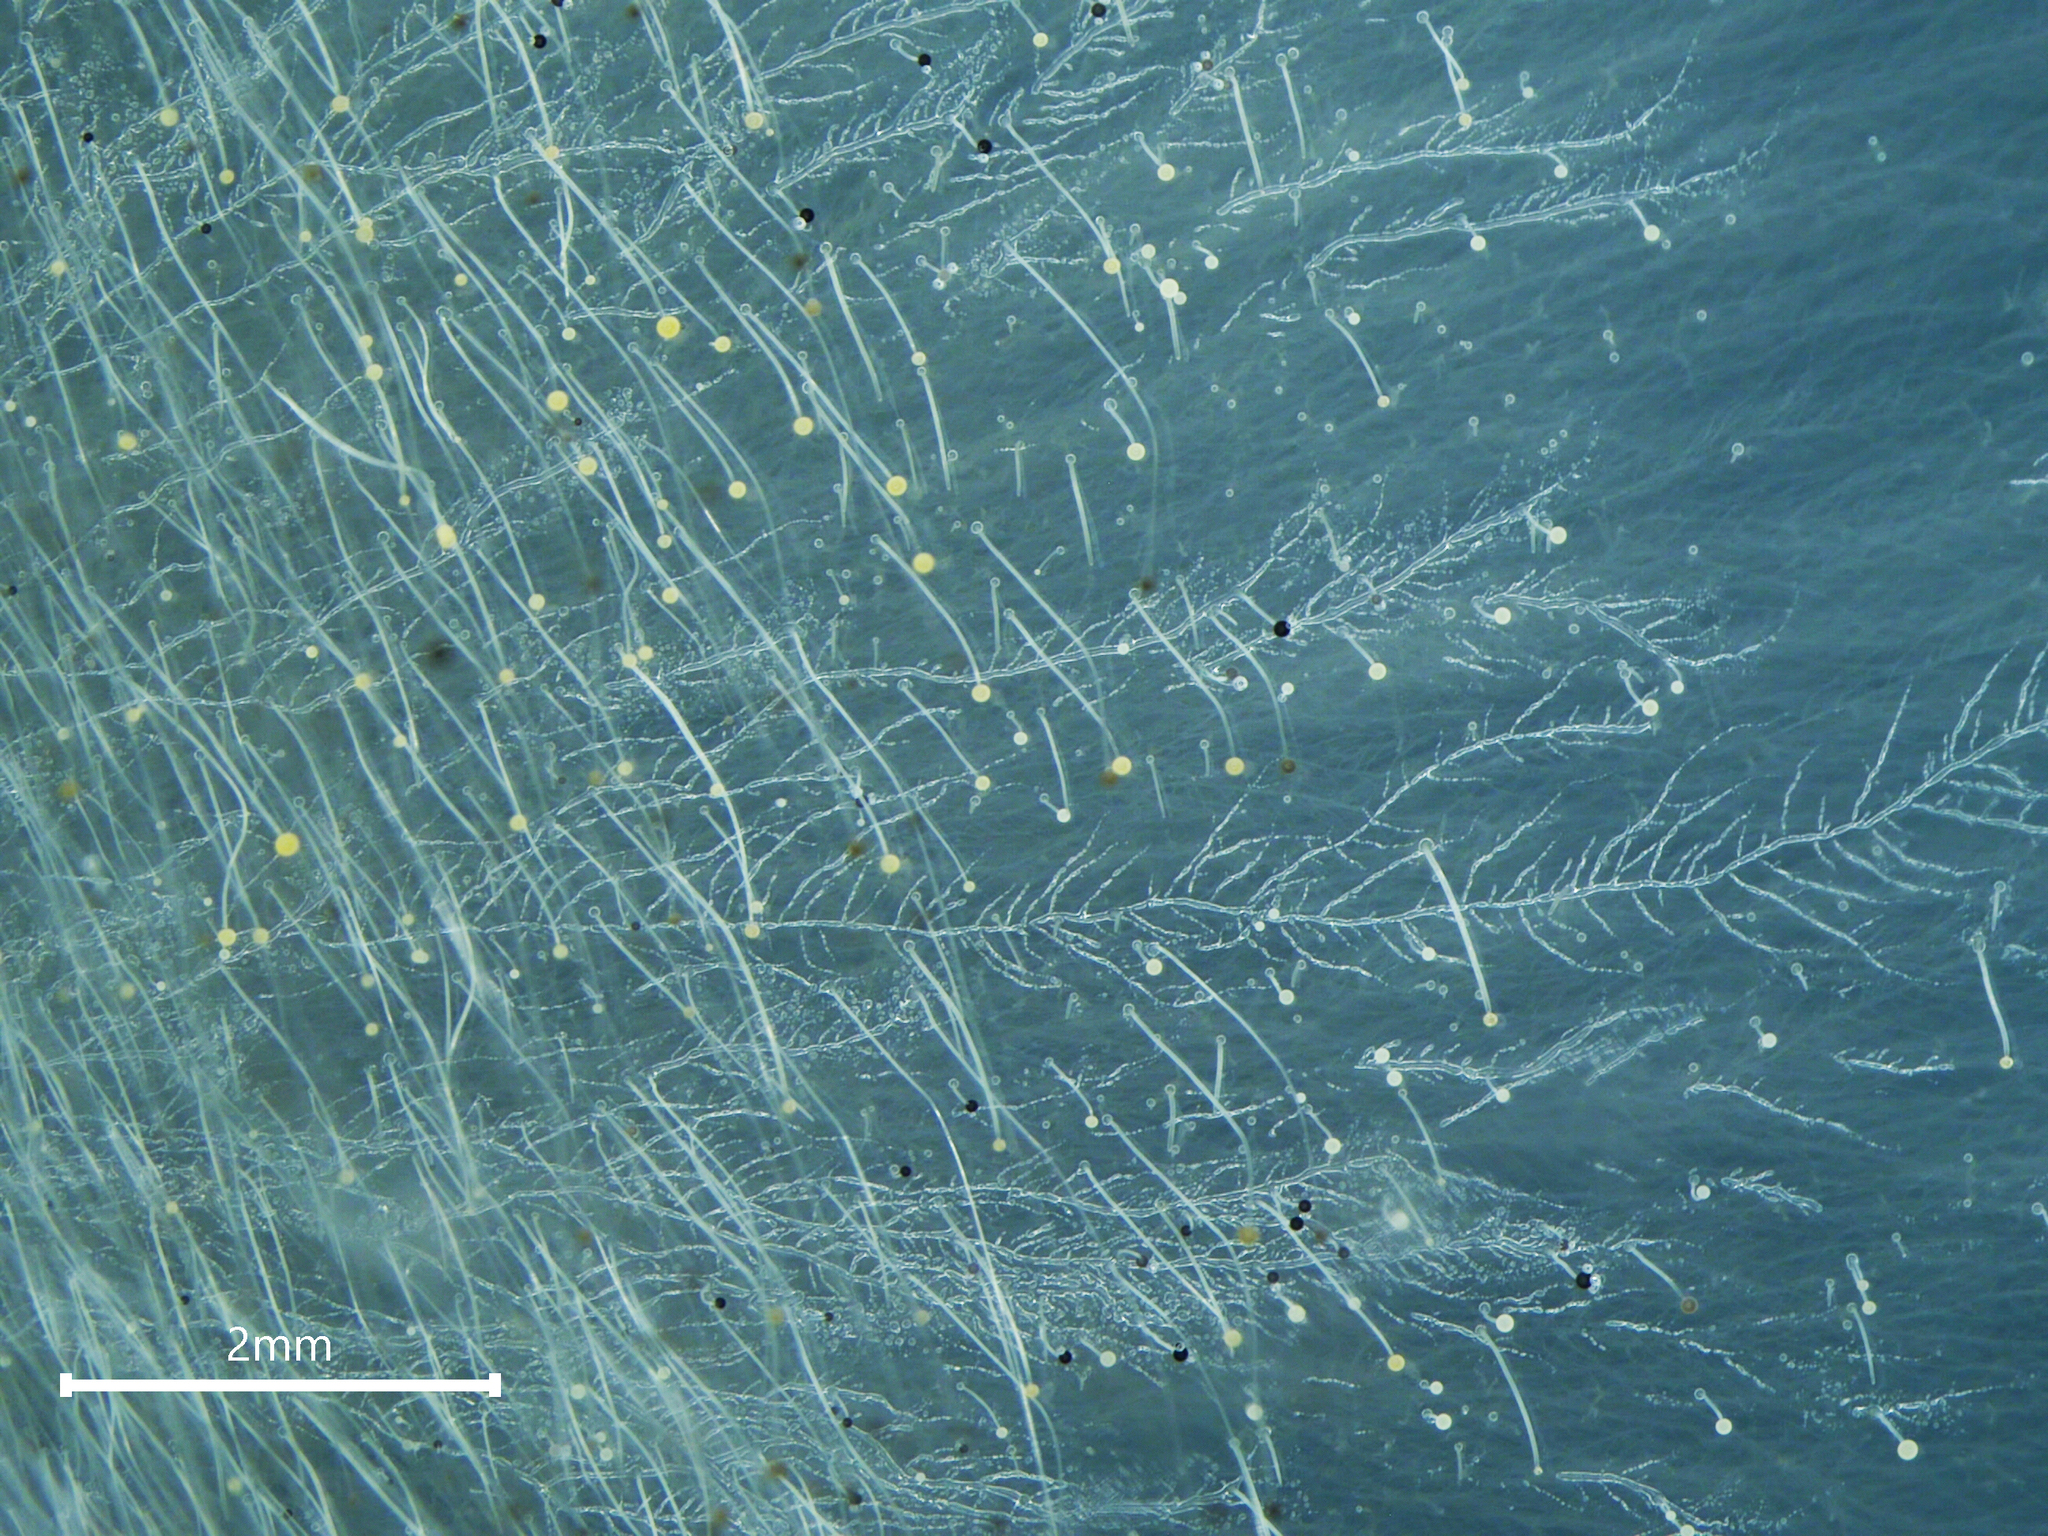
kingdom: Fungi
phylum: Mucoromycota
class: Mucoromycetes
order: Mucorales
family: Mucoraceae
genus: Mucor
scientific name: Mucor saturninus
